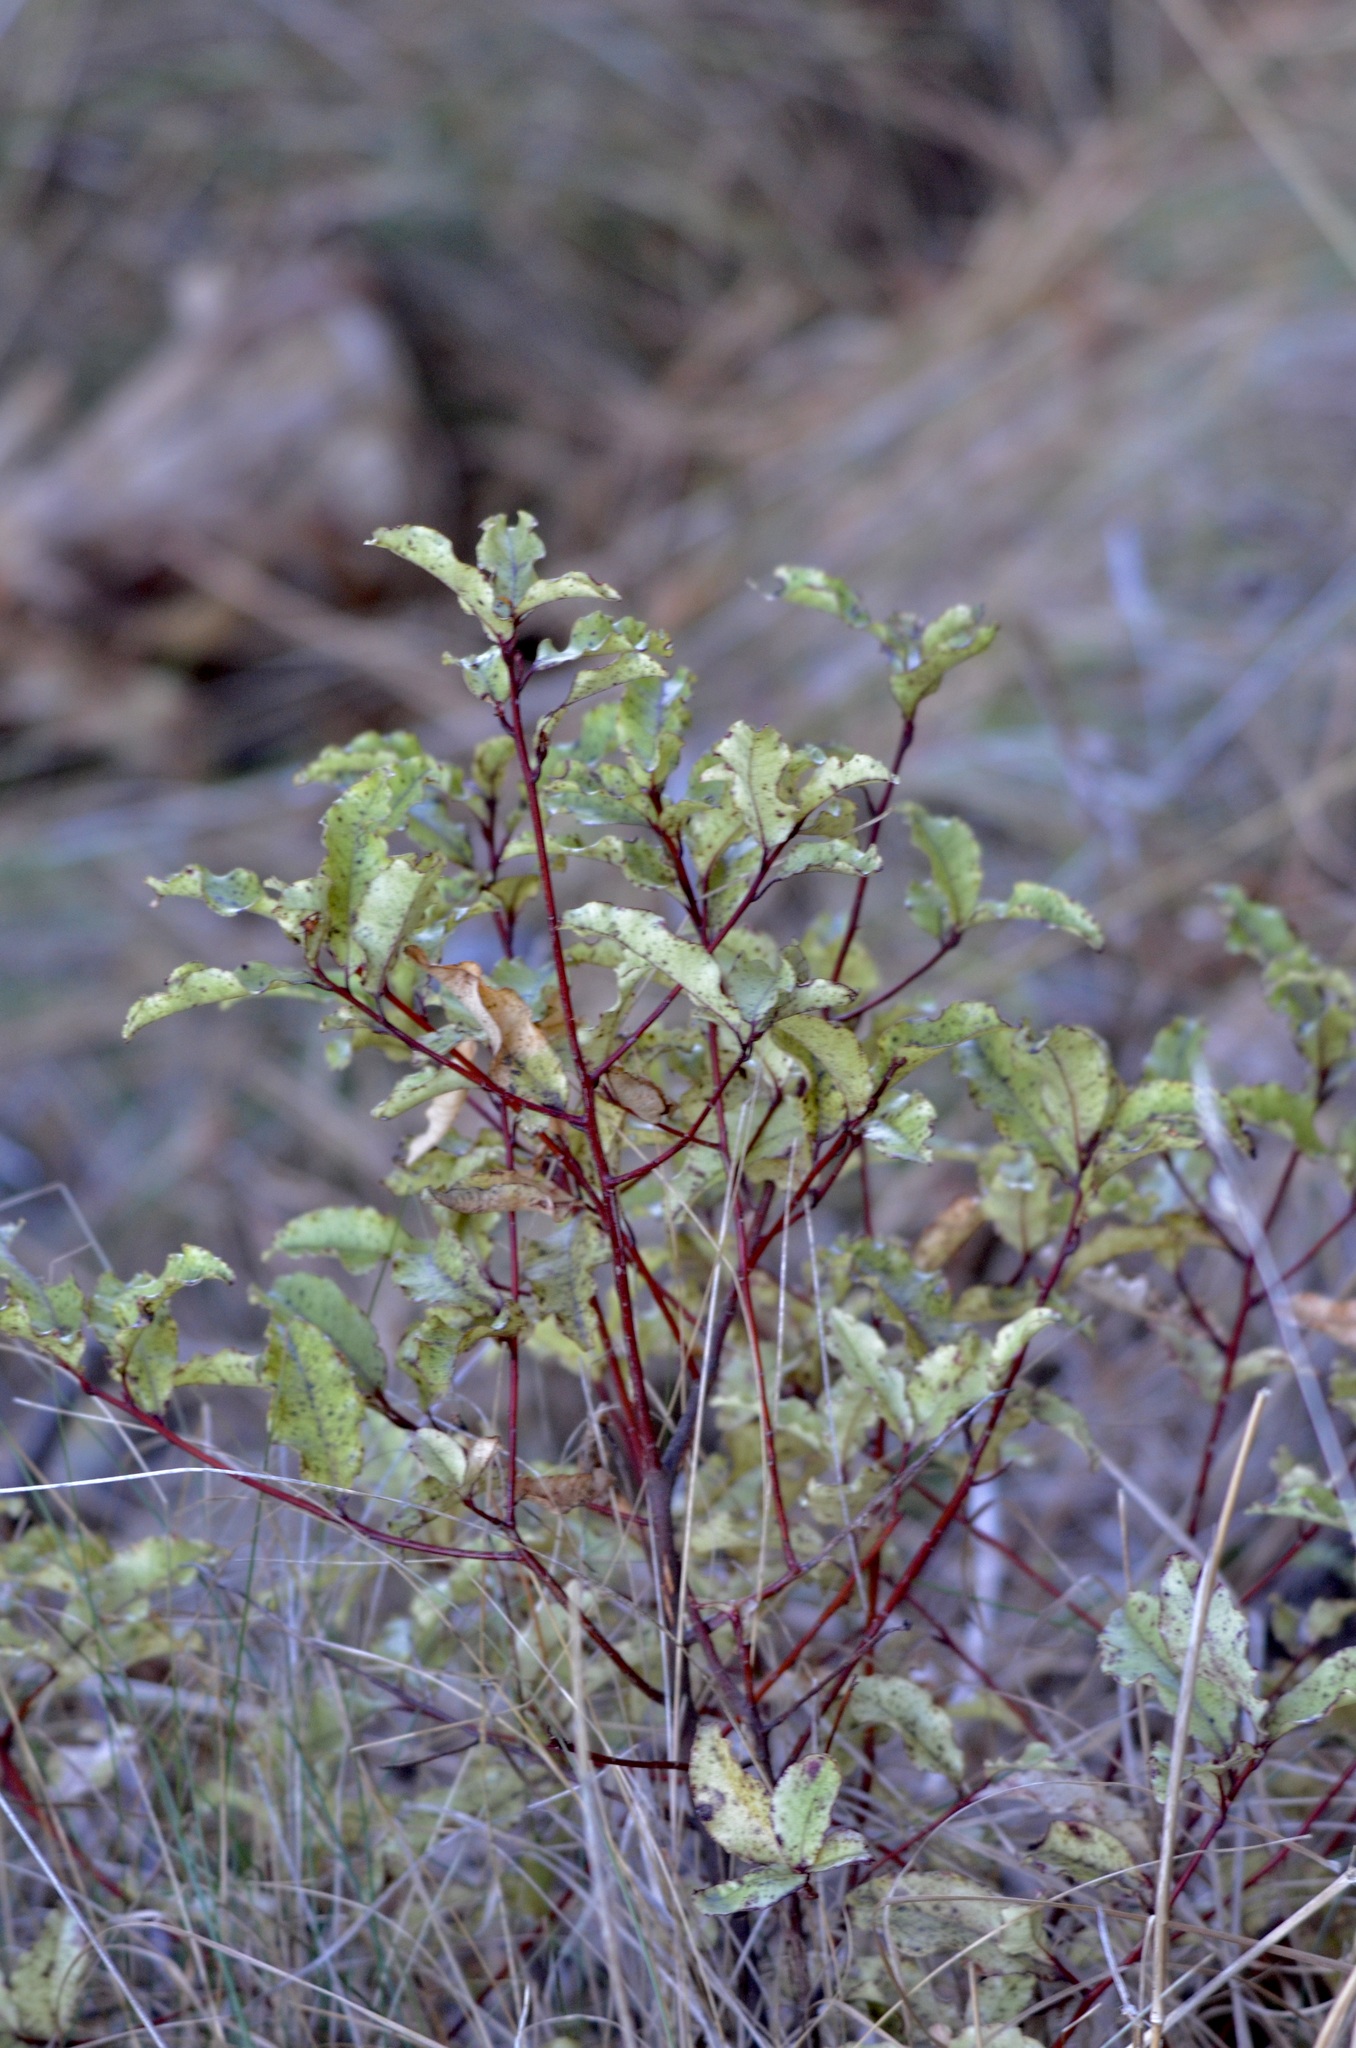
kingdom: Plantae
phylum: Tracheophyta
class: Magnoliopsida
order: Ericales
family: Primulaceae
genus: Myrsine
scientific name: Myrsine australis
